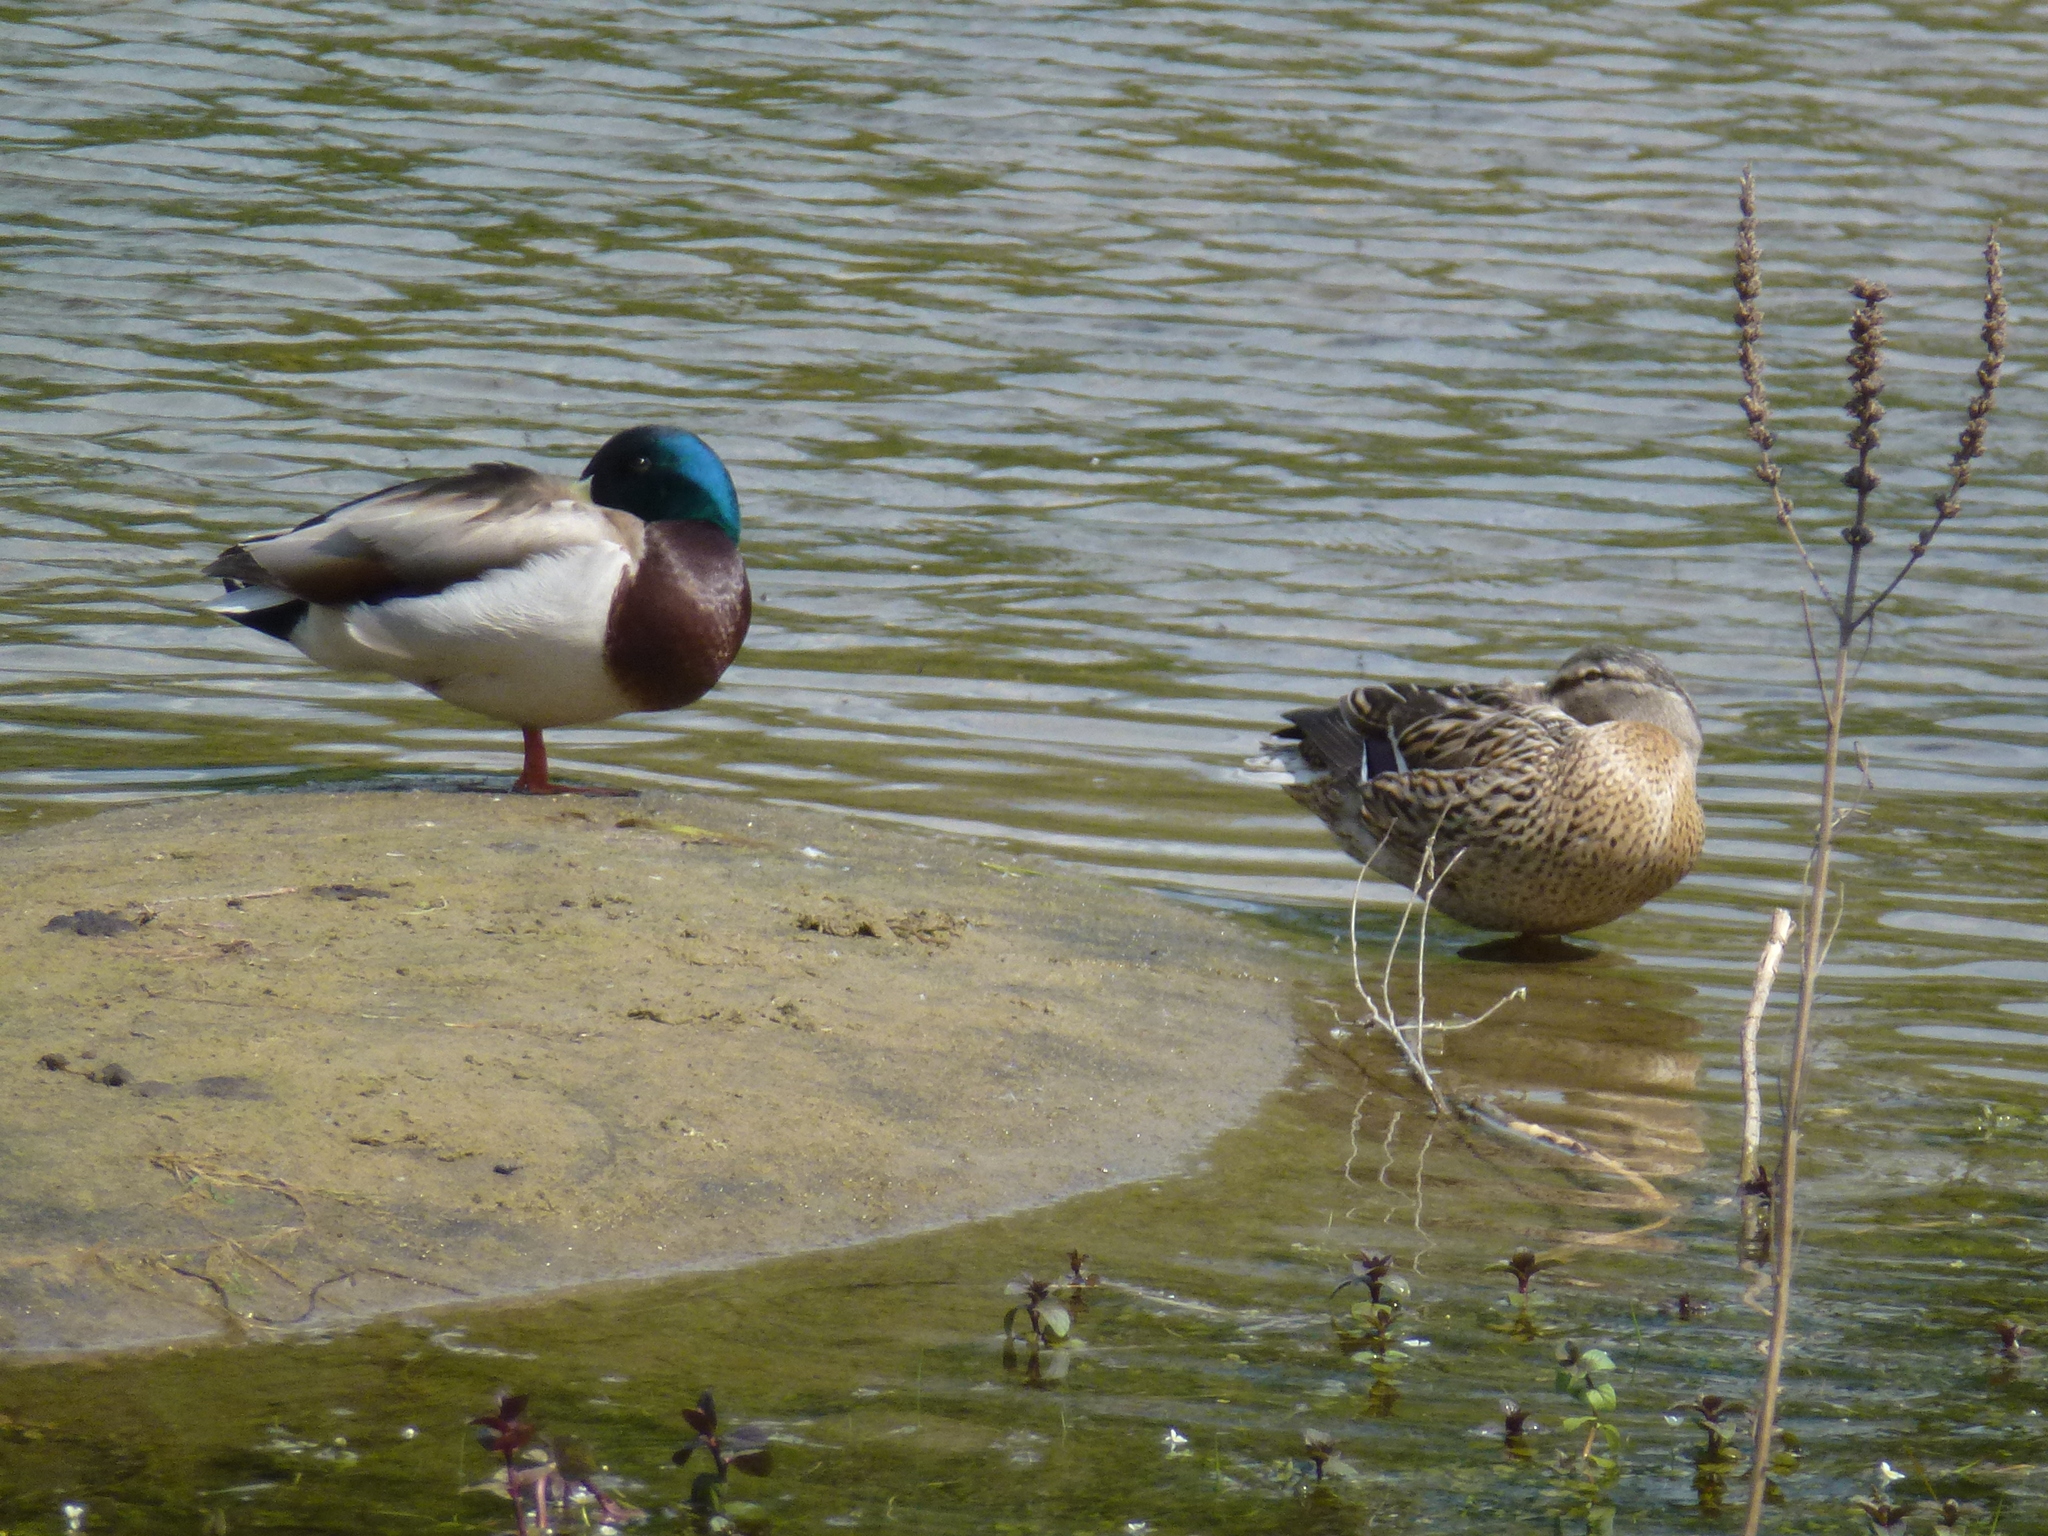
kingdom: Animalia
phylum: Chordata
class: Aves
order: Anseriformes
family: Anatidae
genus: Anas
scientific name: Anas platyrhynchos
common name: Mallard
